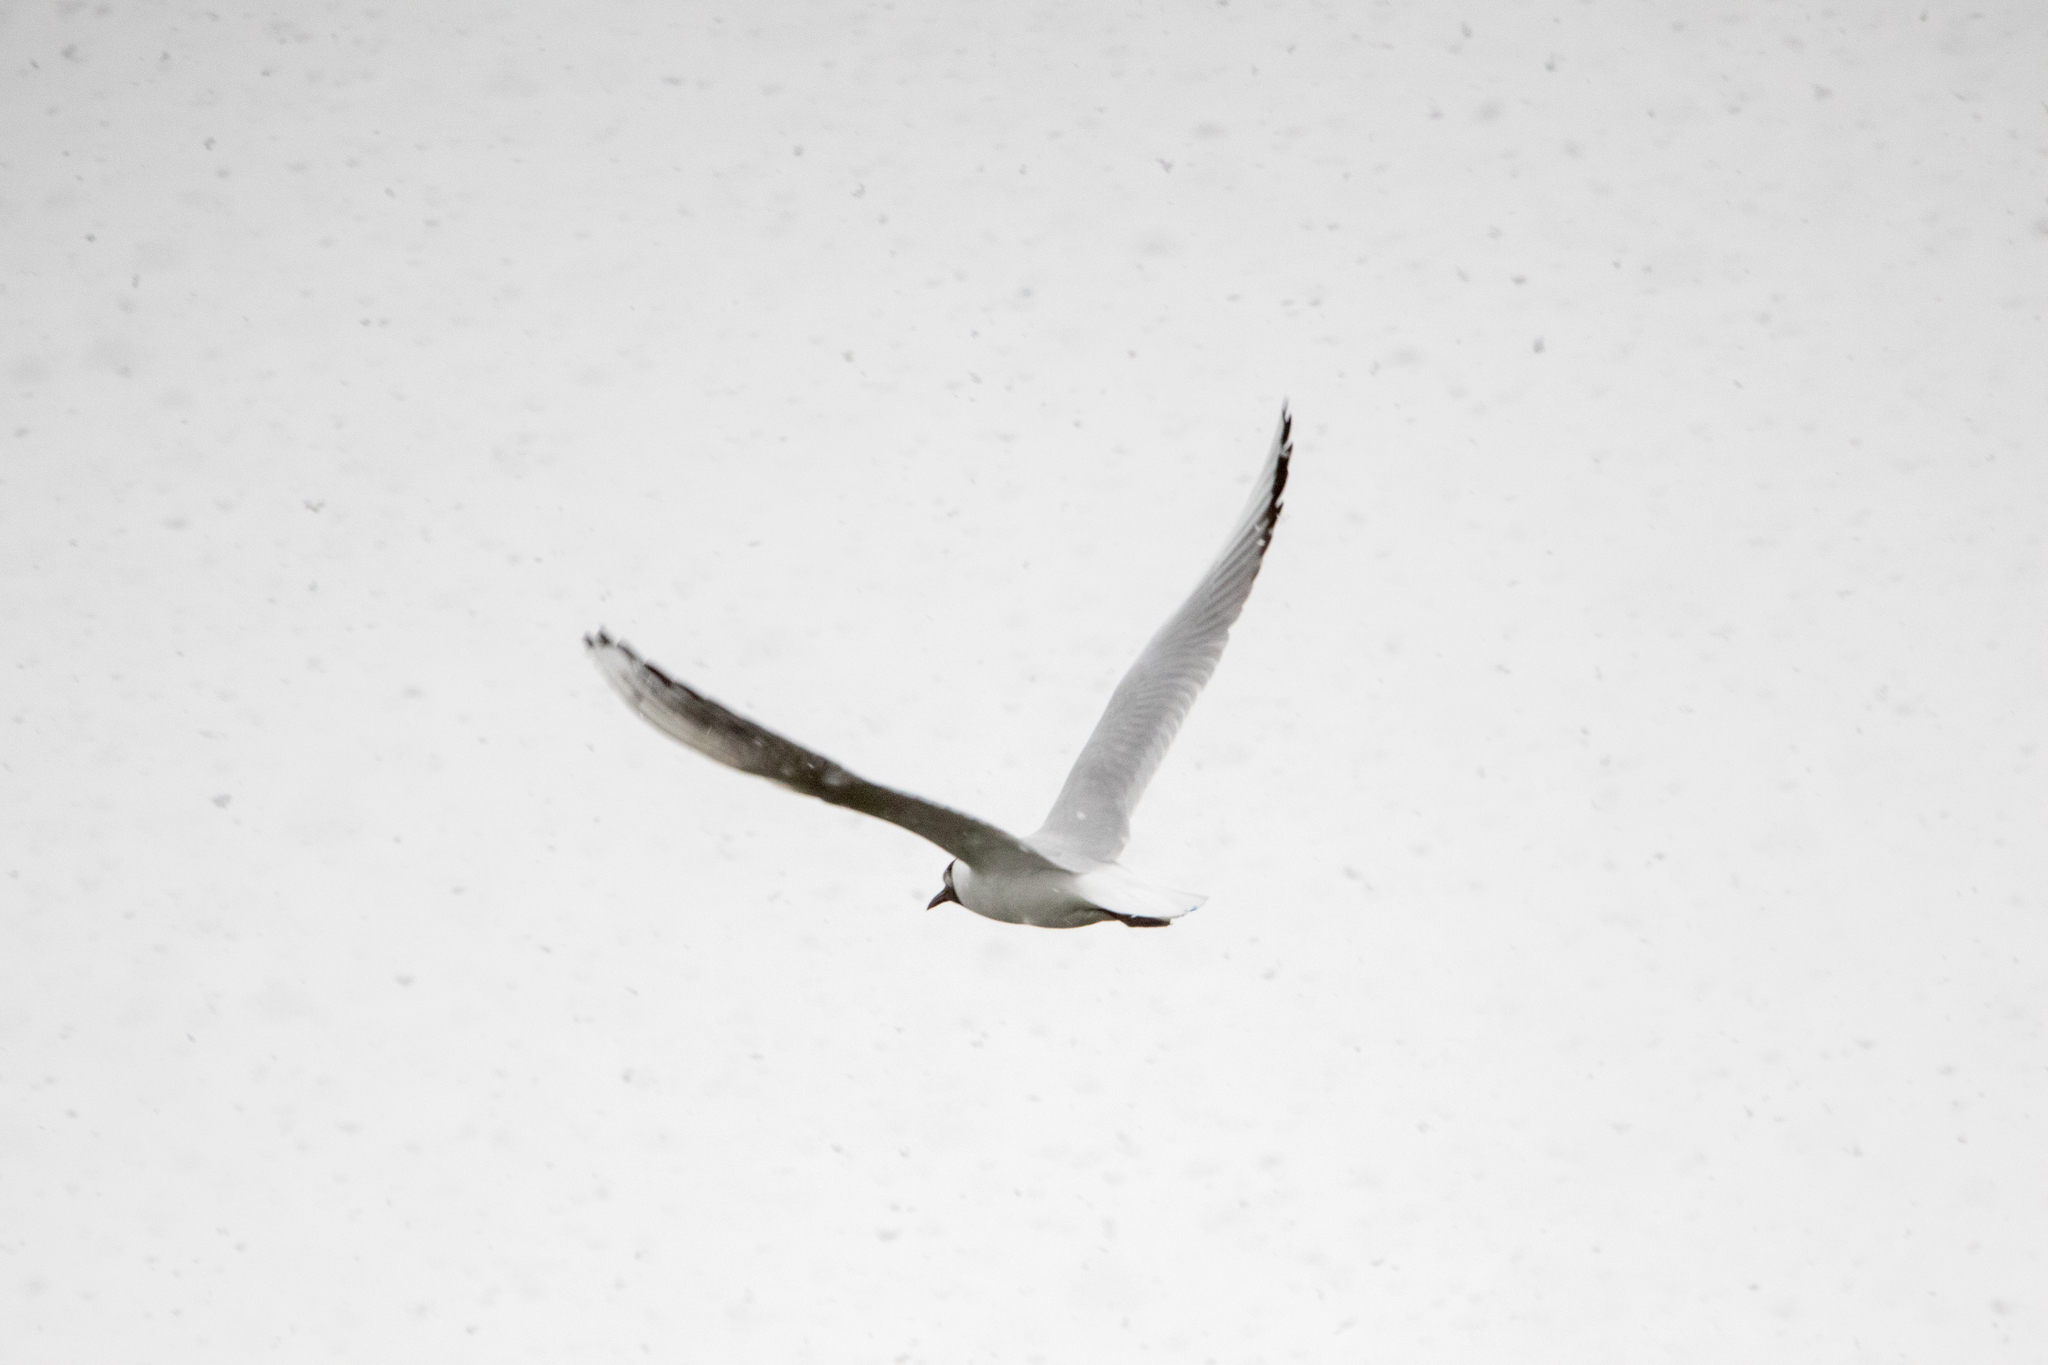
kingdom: Animalia
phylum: Chordata
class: Aves
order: Charadriiformes
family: Laridae
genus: Chroicocephalus
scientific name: Chroicocephalus ridibundus
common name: Black-headed gull
